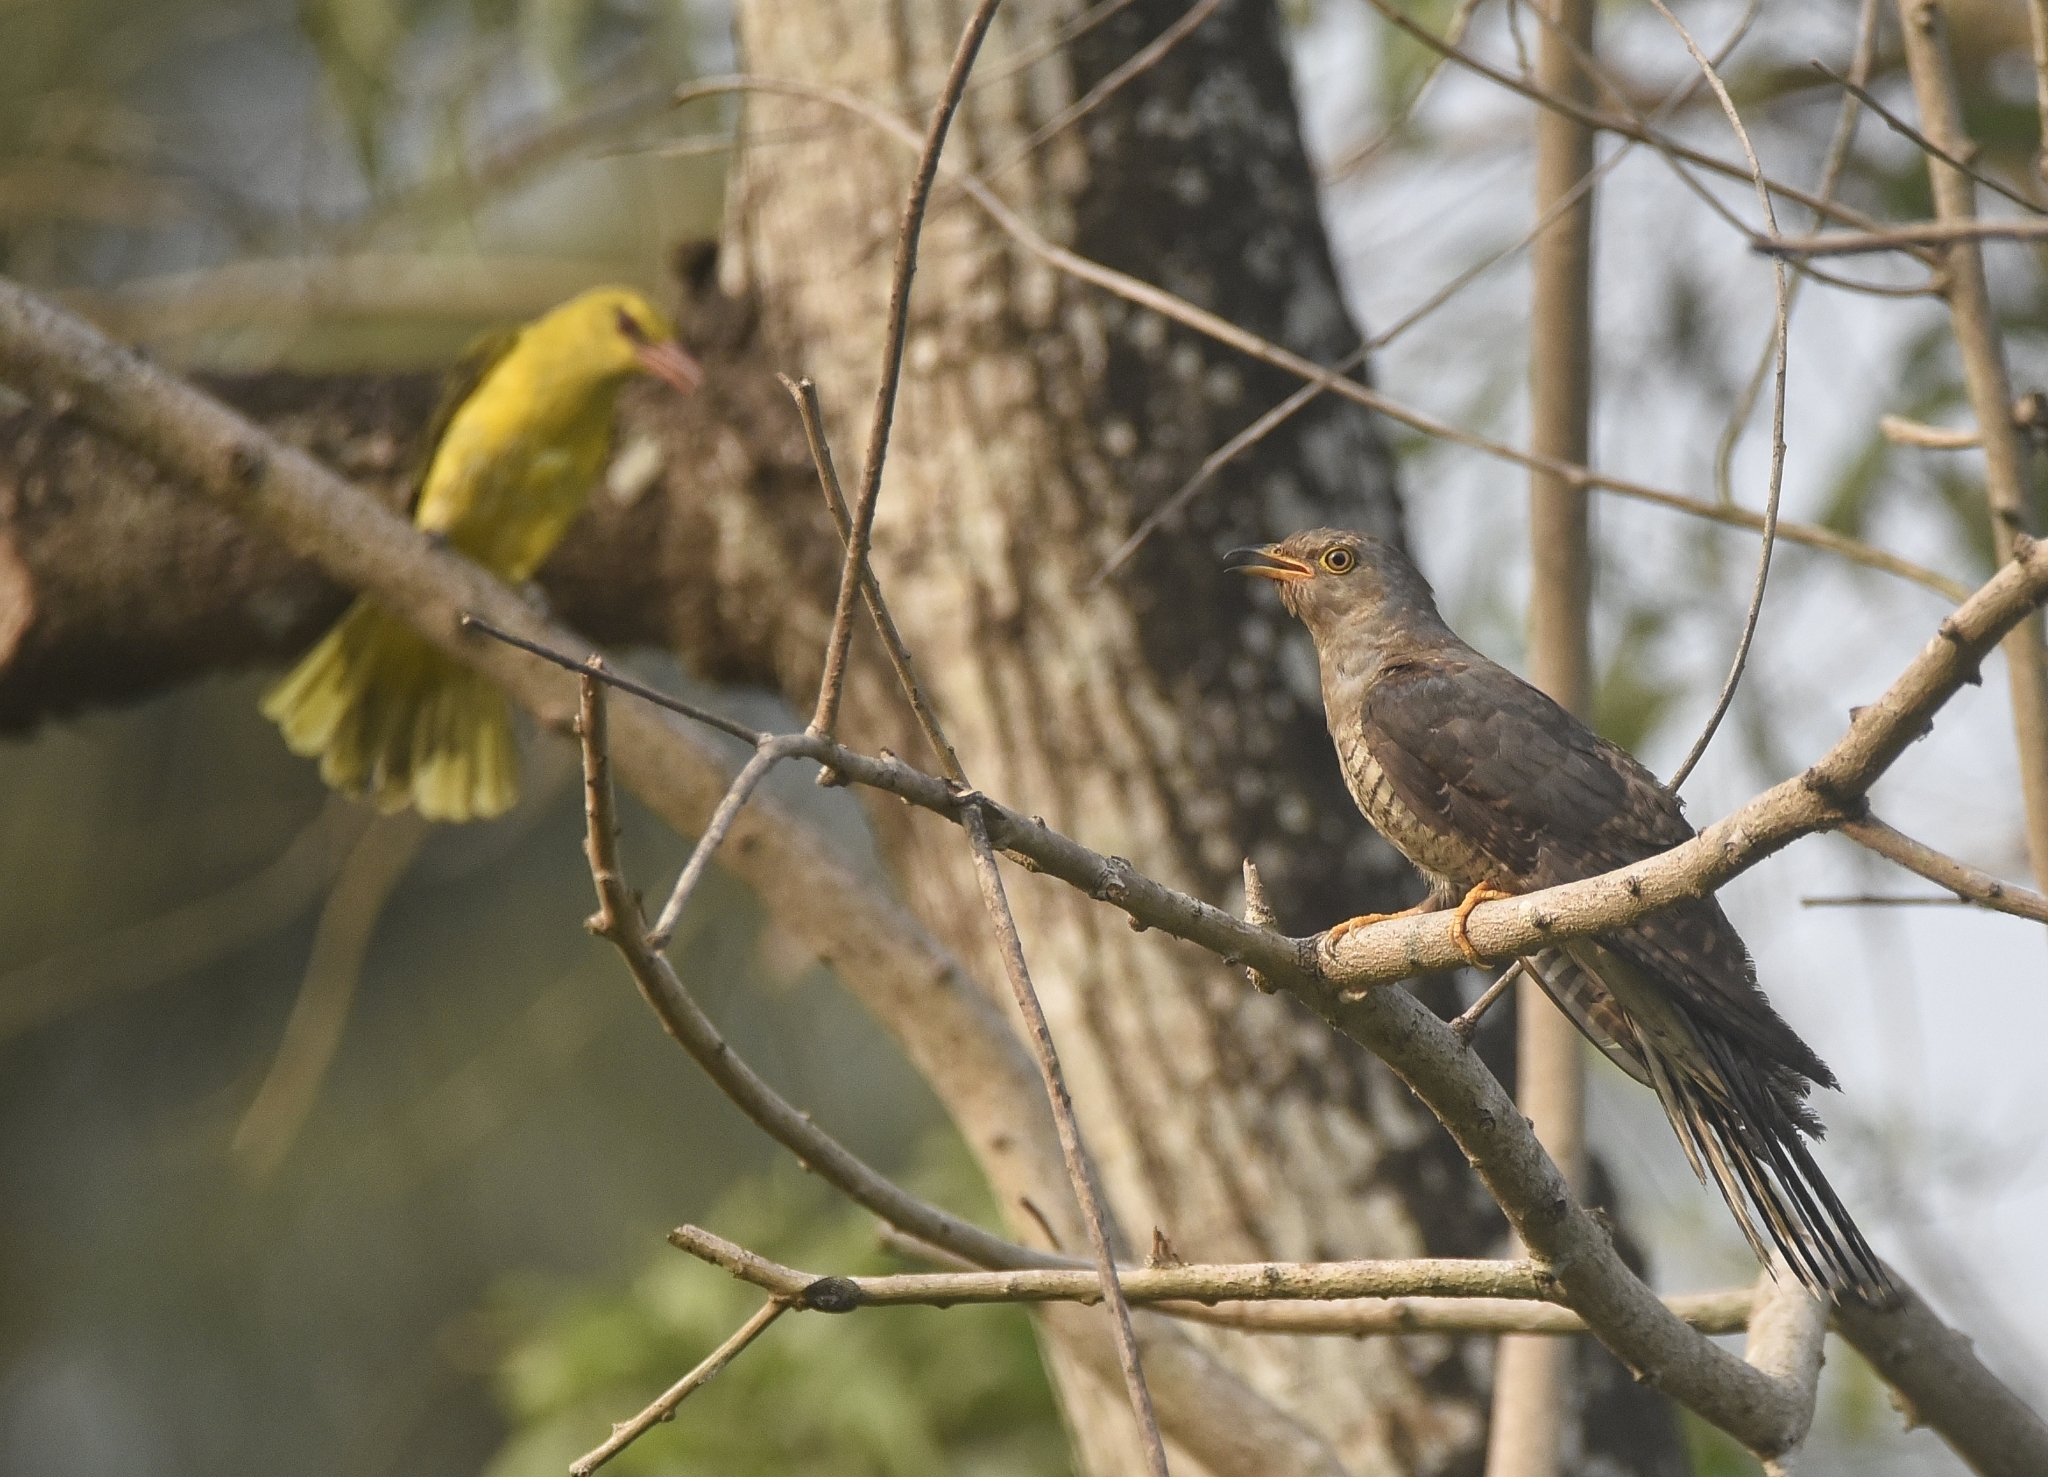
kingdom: Animalia
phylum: Chordata
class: Aves
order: Cuculiformes
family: Cuculidae
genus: Cuculus
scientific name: Cuculus canorus
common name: Common cuckoo
